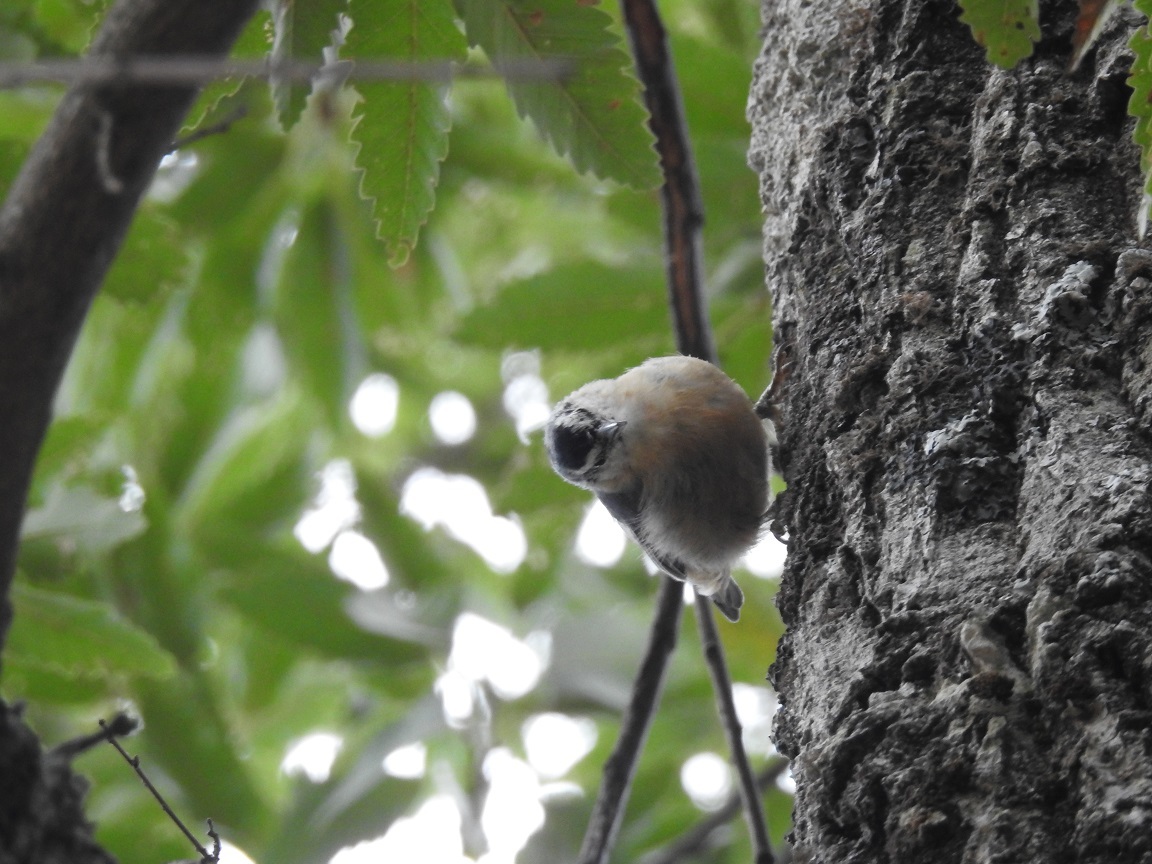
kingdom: Animalia
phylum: Chordata
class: Aves
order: Passeriformes
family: Sittidae
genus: Sitta
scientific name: Sitta ledanti
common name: Algerian nuthatch
